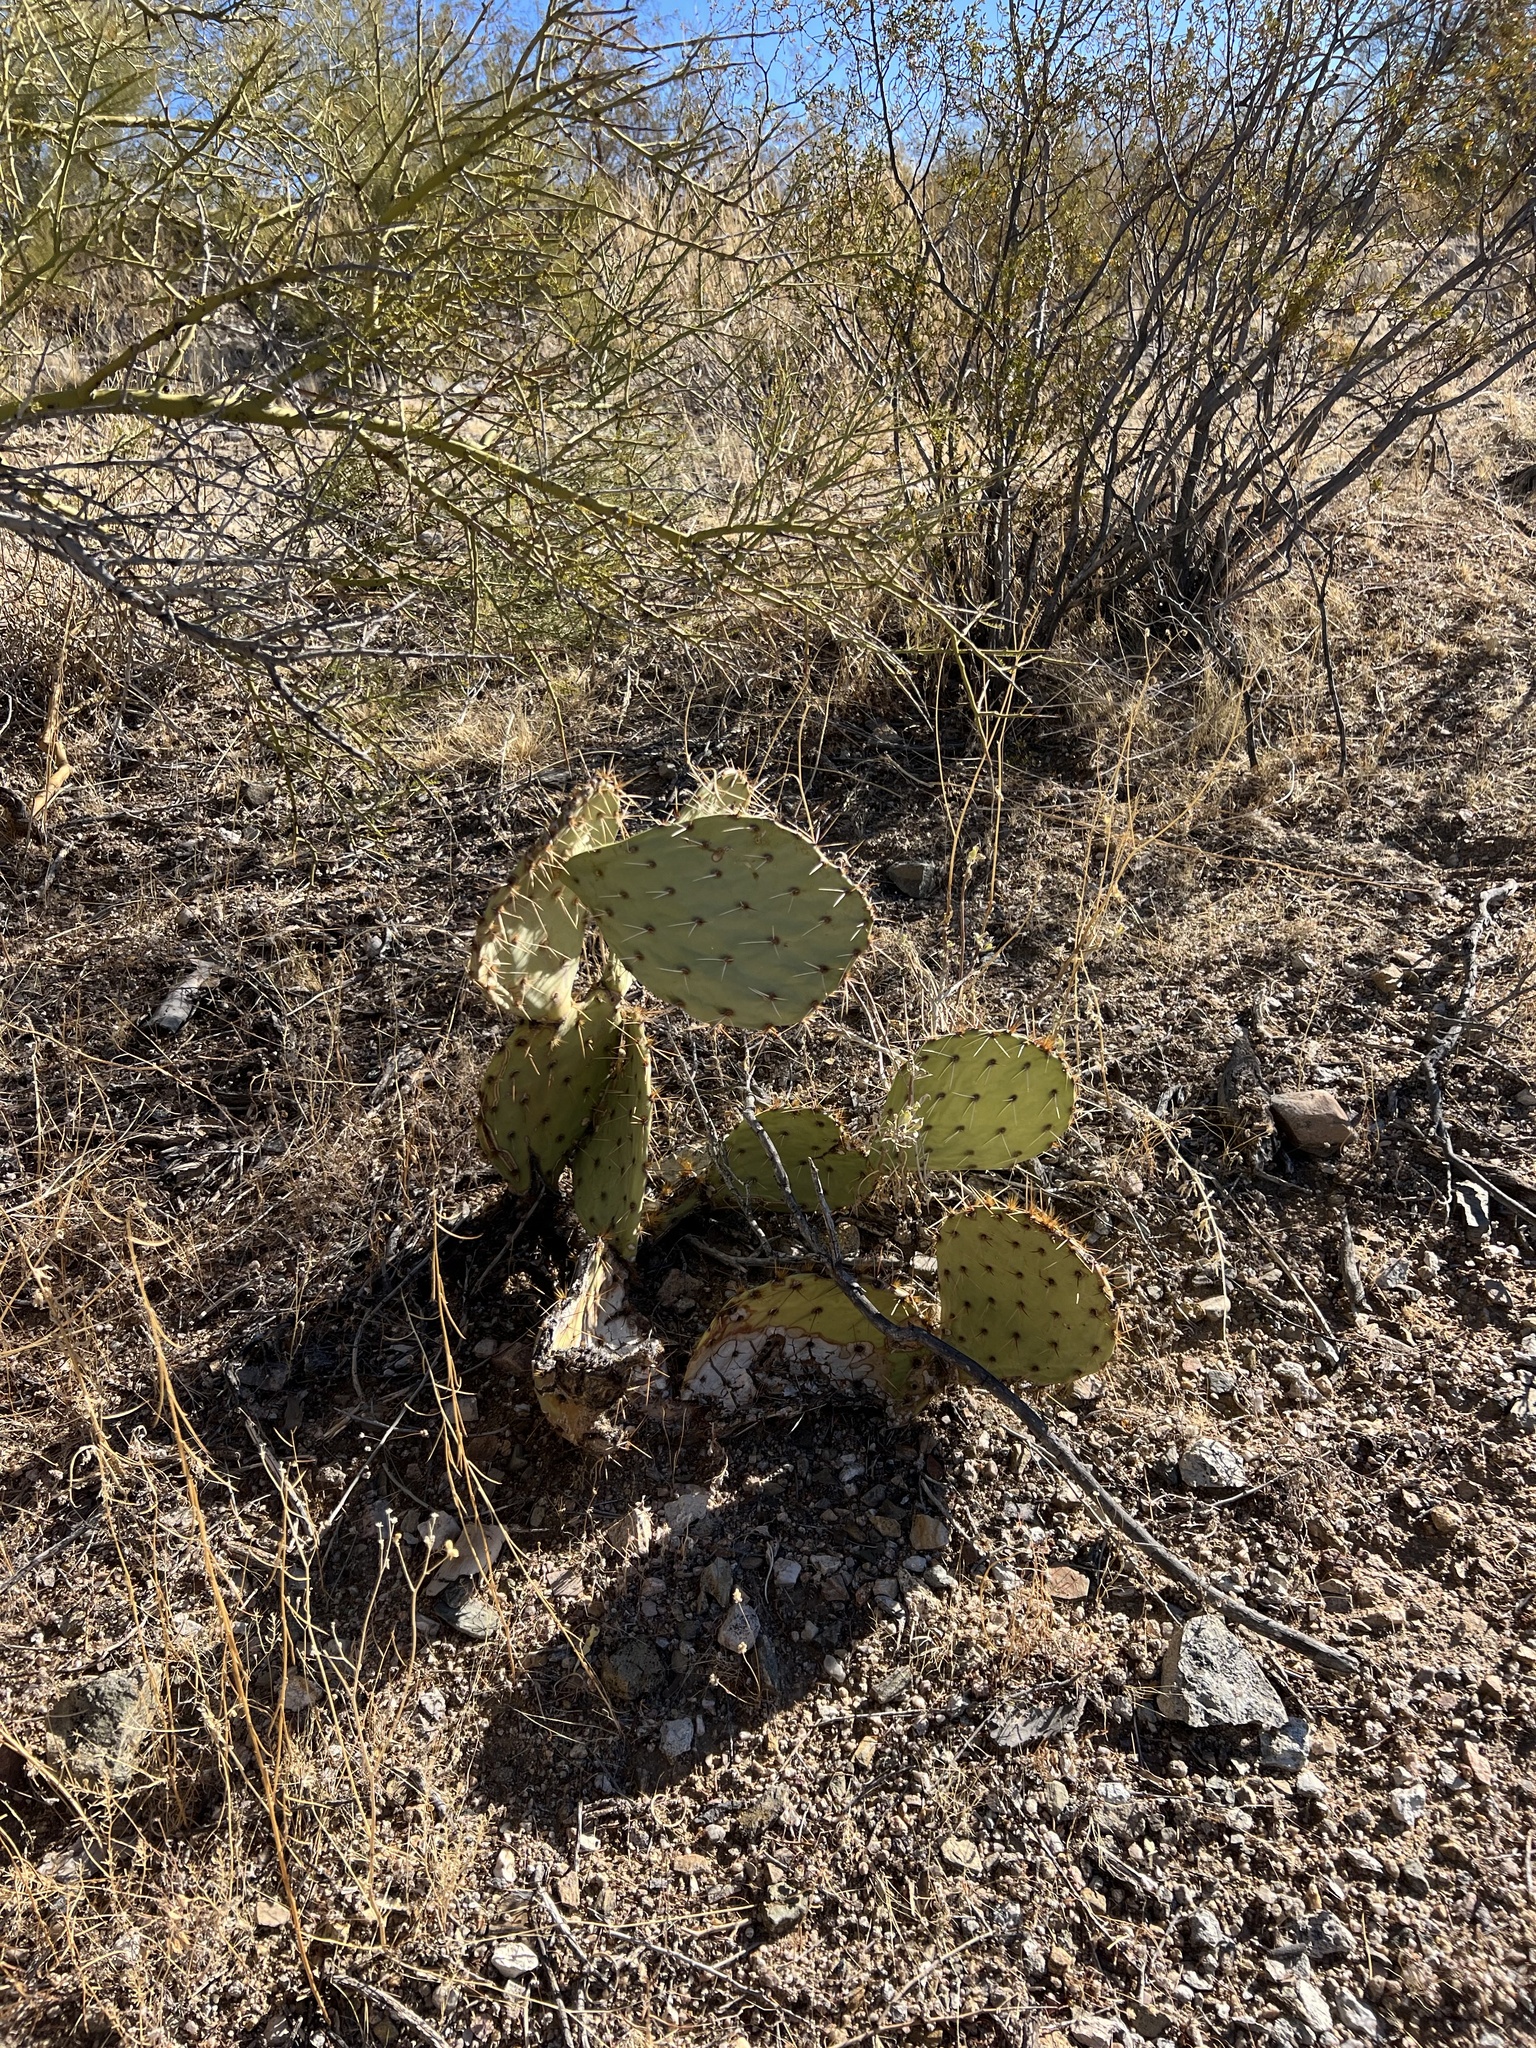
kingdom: Plantae
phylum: Tracheophyta
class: Magnoliopsida
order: Caryophyllales
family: Cactaceae
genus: Opuntia
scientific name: Opuntia engelmannii
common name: Cactus-apple
